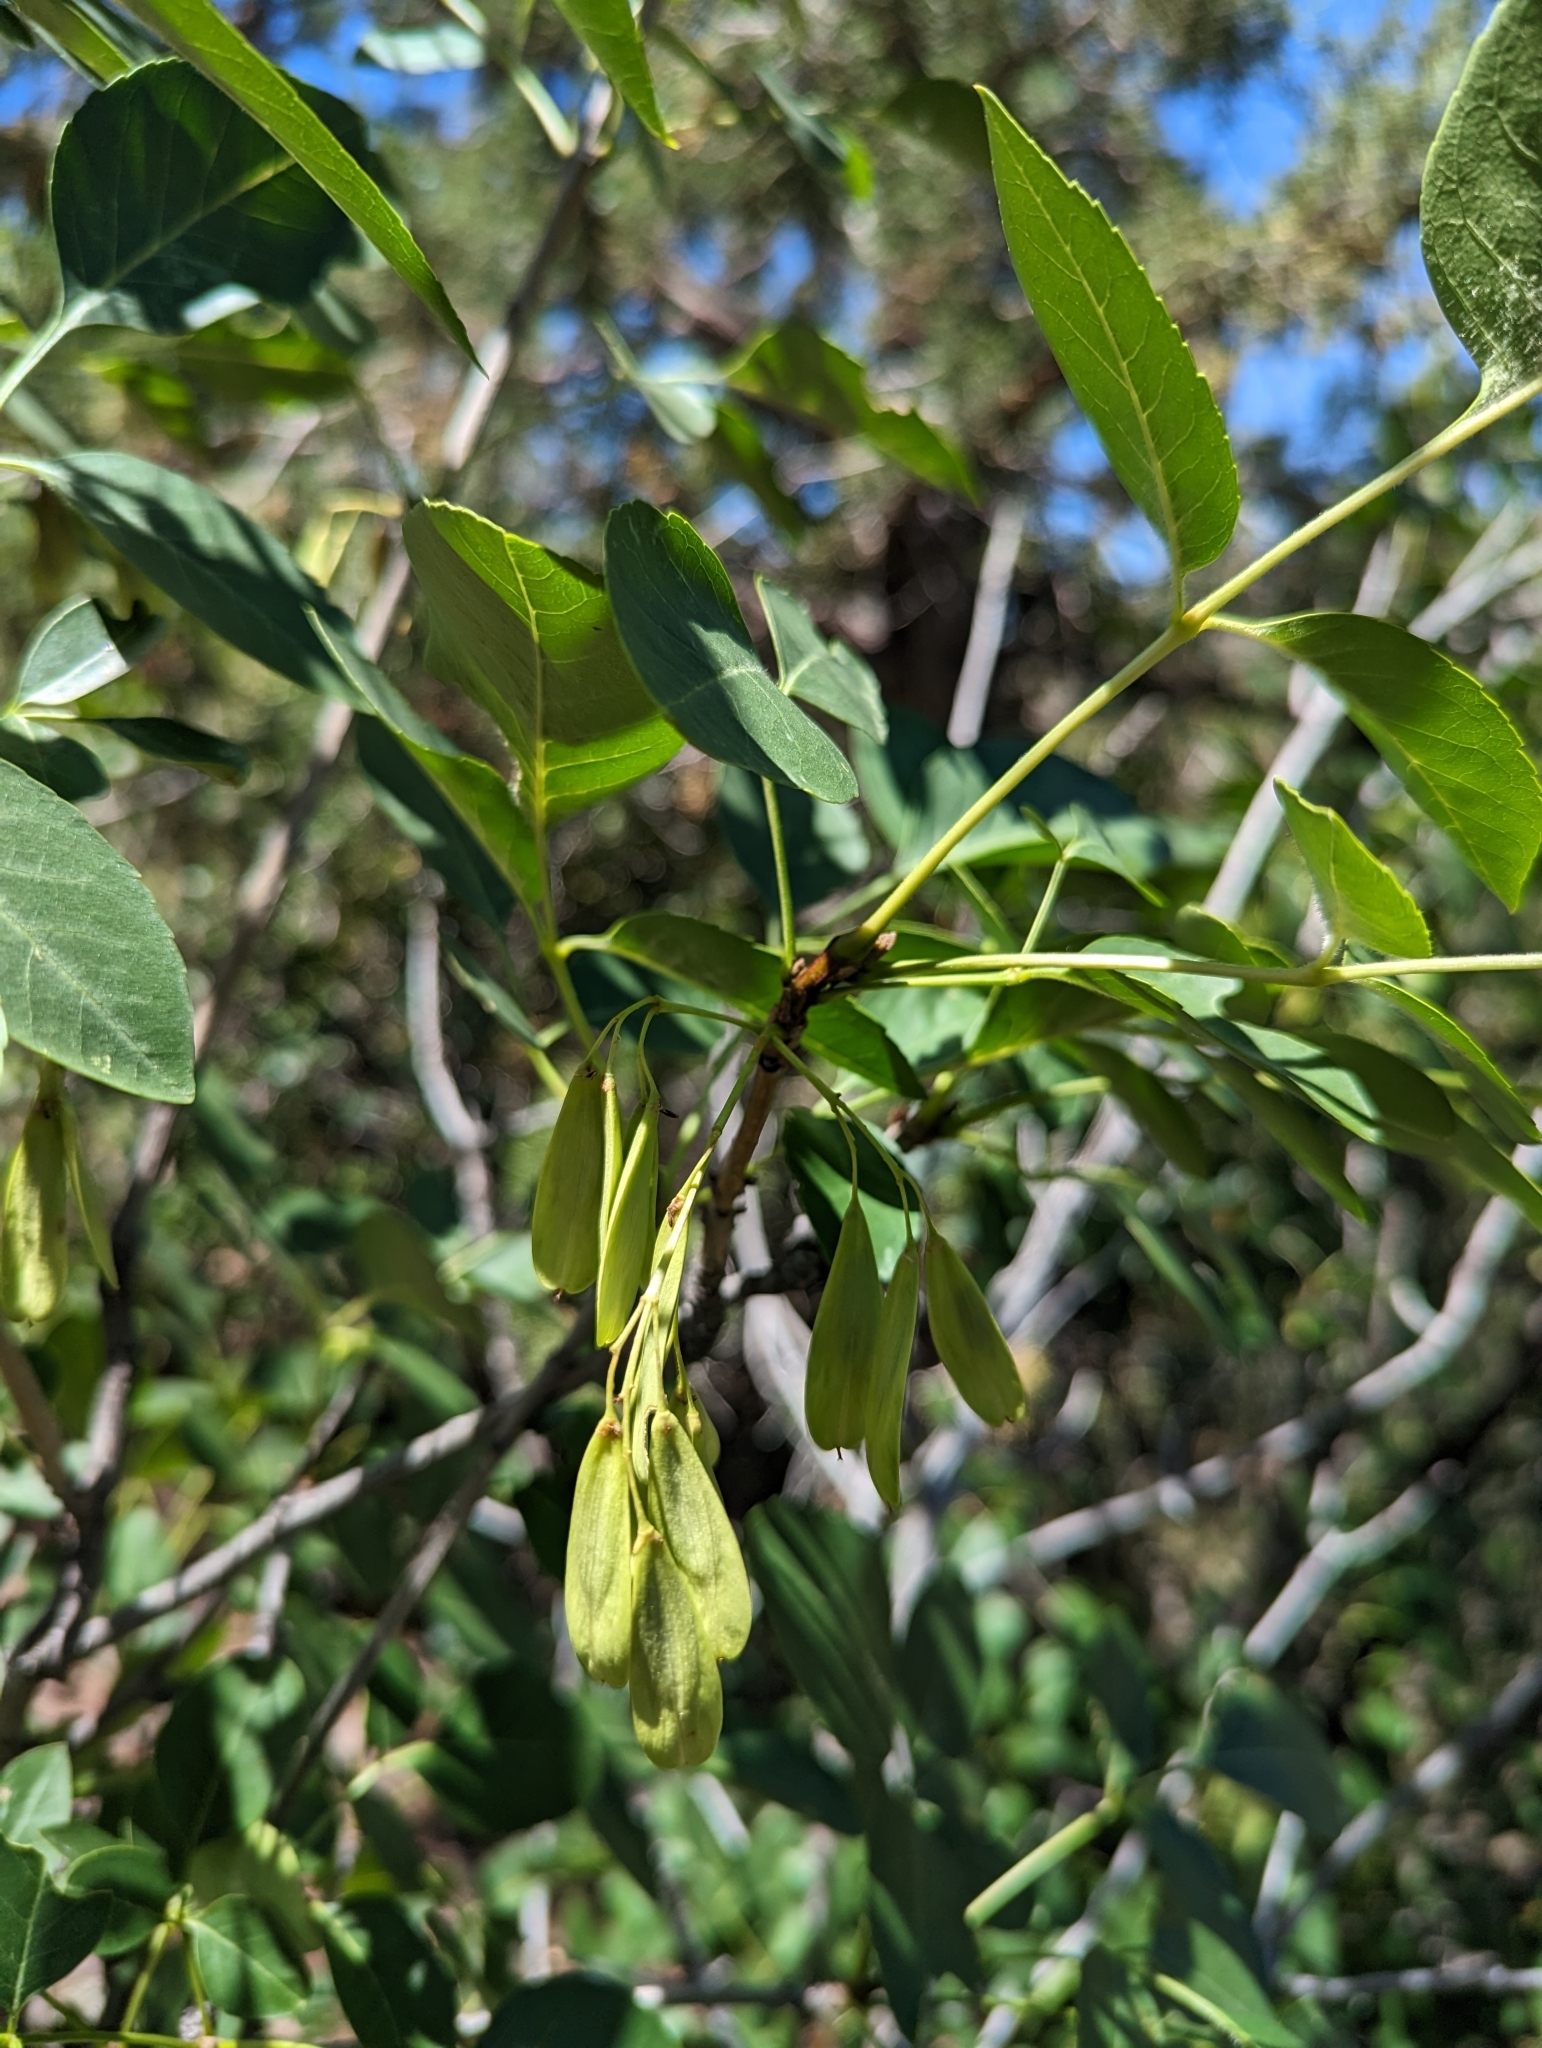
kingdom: Plantae
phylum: Tracheophyta
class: Magnoliopsida
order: Lamiales
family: Oleaceae
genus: Fraxinus
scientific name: Fraxinus velutina
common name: Arizon ash
